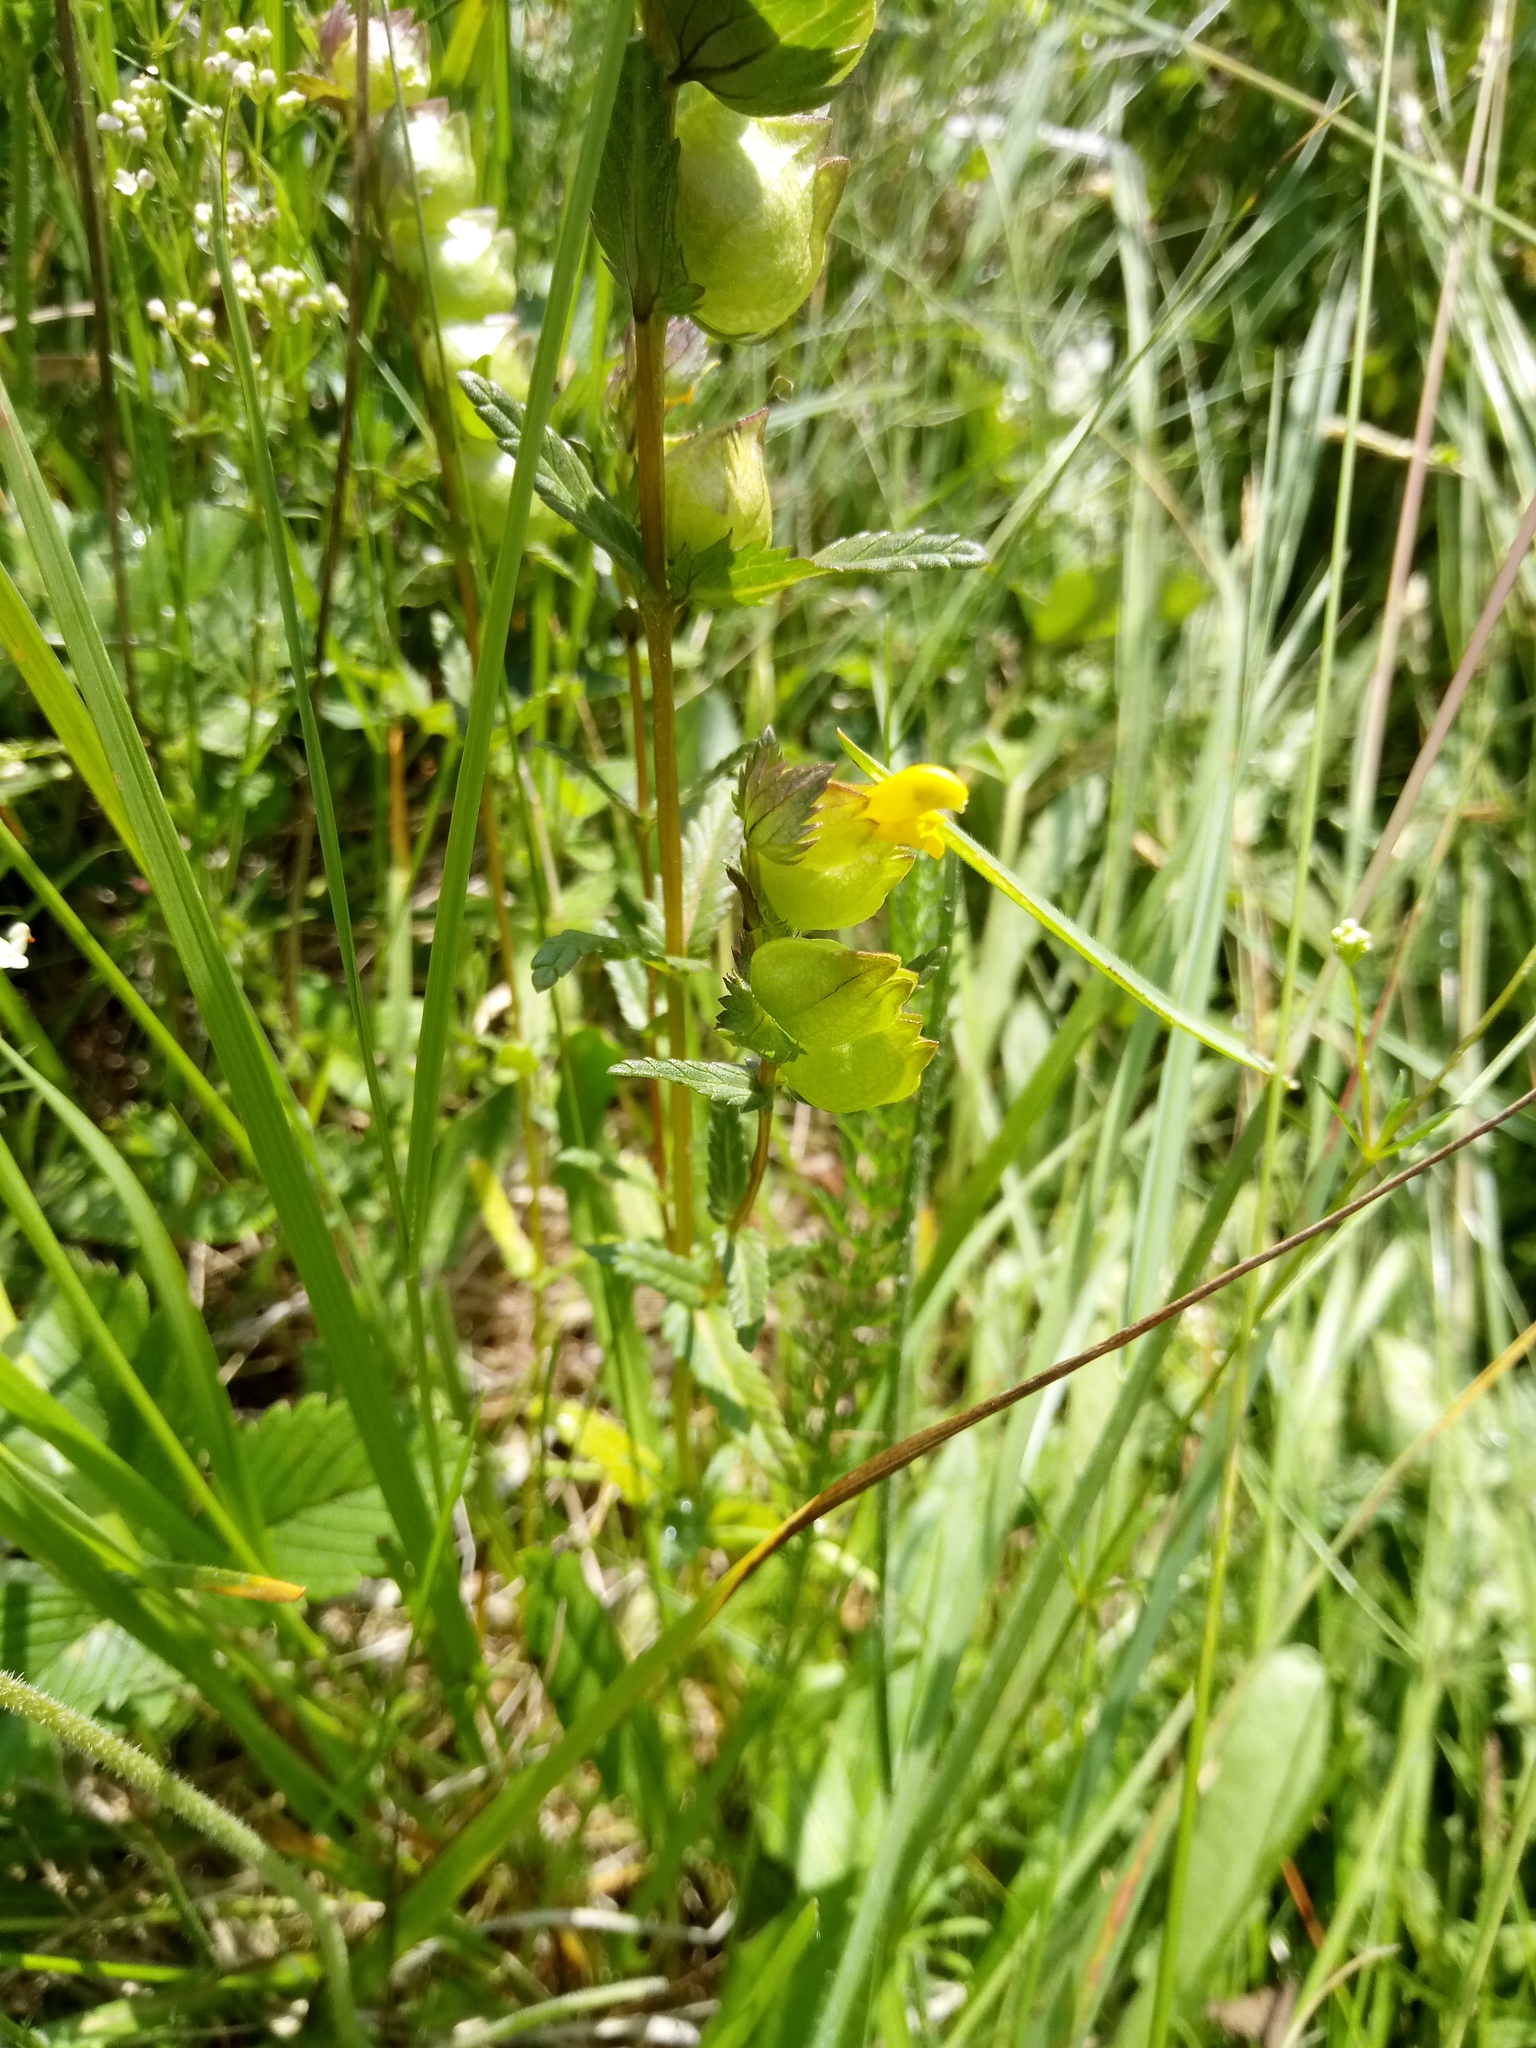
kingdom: Plantae
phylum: Tracheophyta
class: Magnoliopsida
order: Lamiales
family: Orobanchaceae
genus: Rhinanthus
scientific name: Rhinanthus minor
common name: Yellow-rattle
